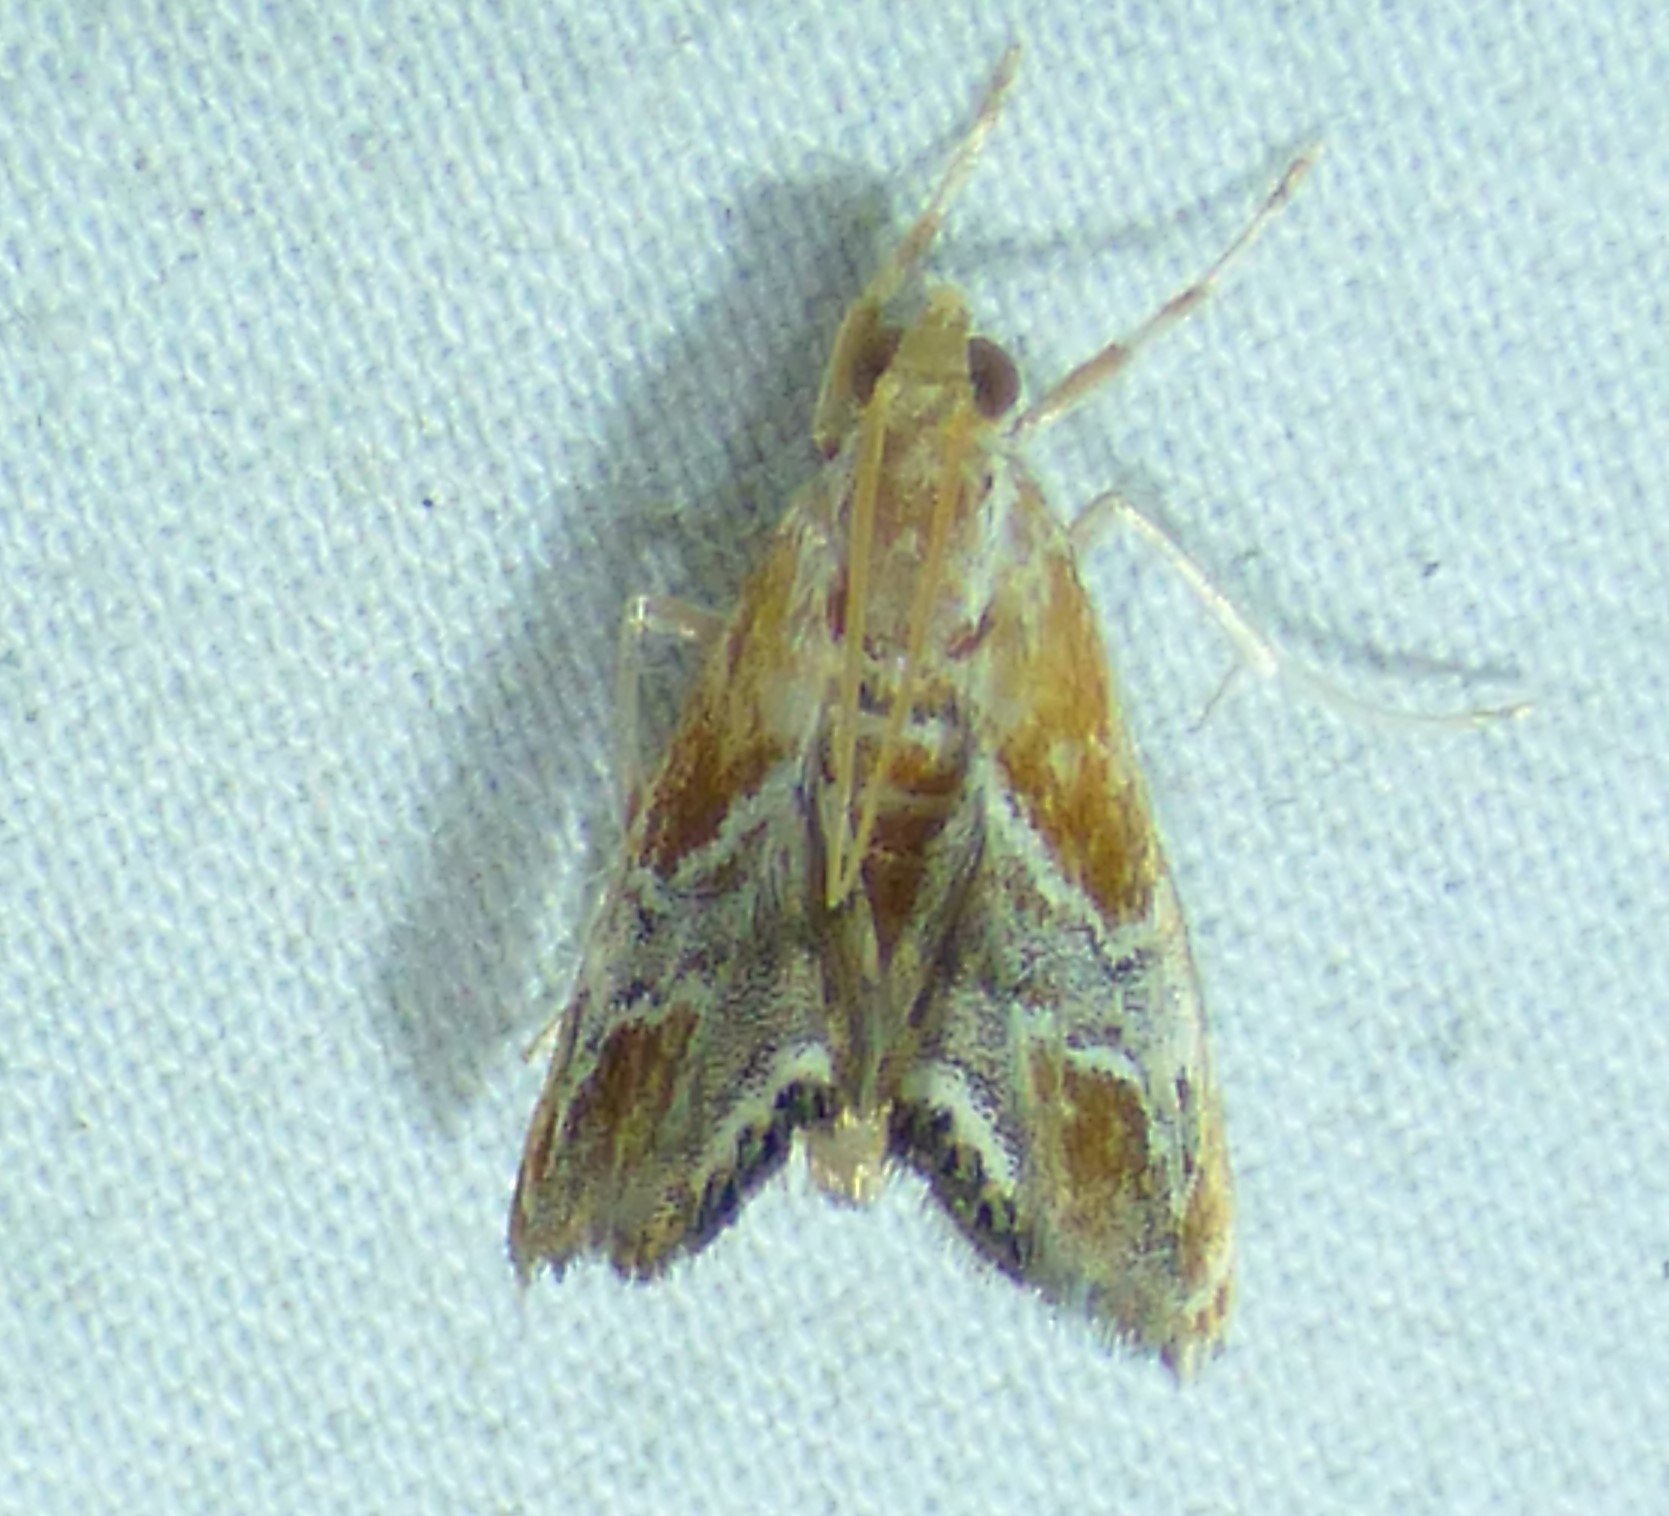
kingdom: Animalia
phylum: Arthropoda
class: Insecta
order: Lepidoptera
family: Crambidae
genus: Chalcoela
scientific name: Chalcoela pegasalis
